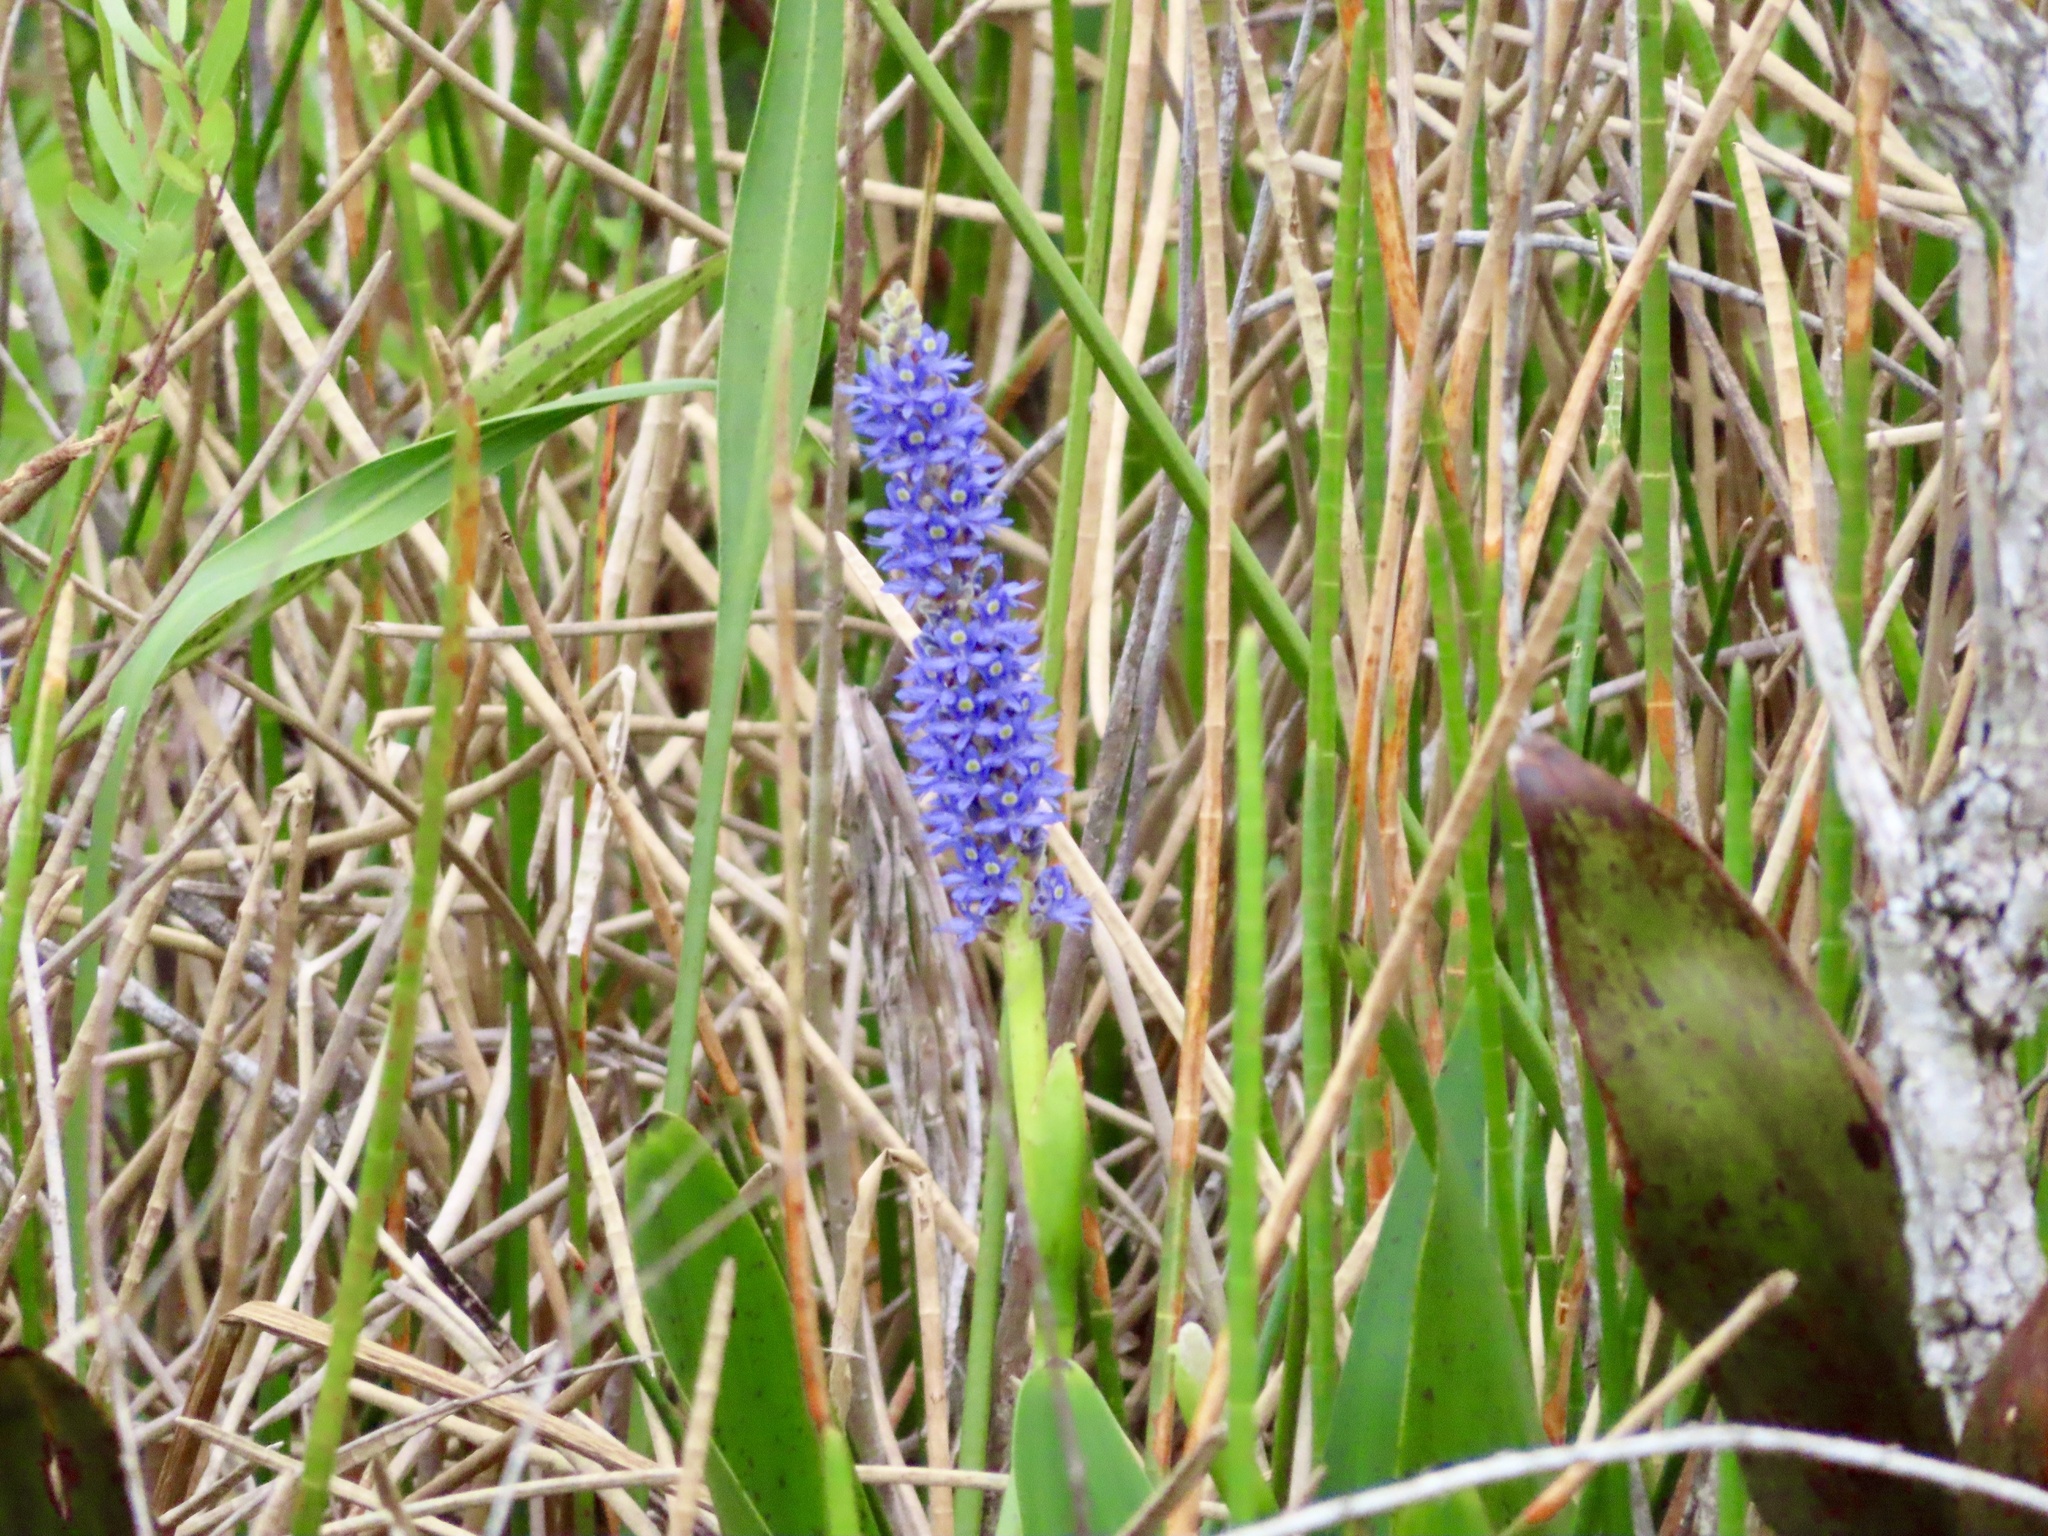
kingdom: Plantae
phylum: Tracheophyta
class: Magnoliopsida
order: Myrtales
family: Onagraceae
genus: Ludwigia
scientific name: Ludwigia peruviana
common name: Peruvian primrose-willow
